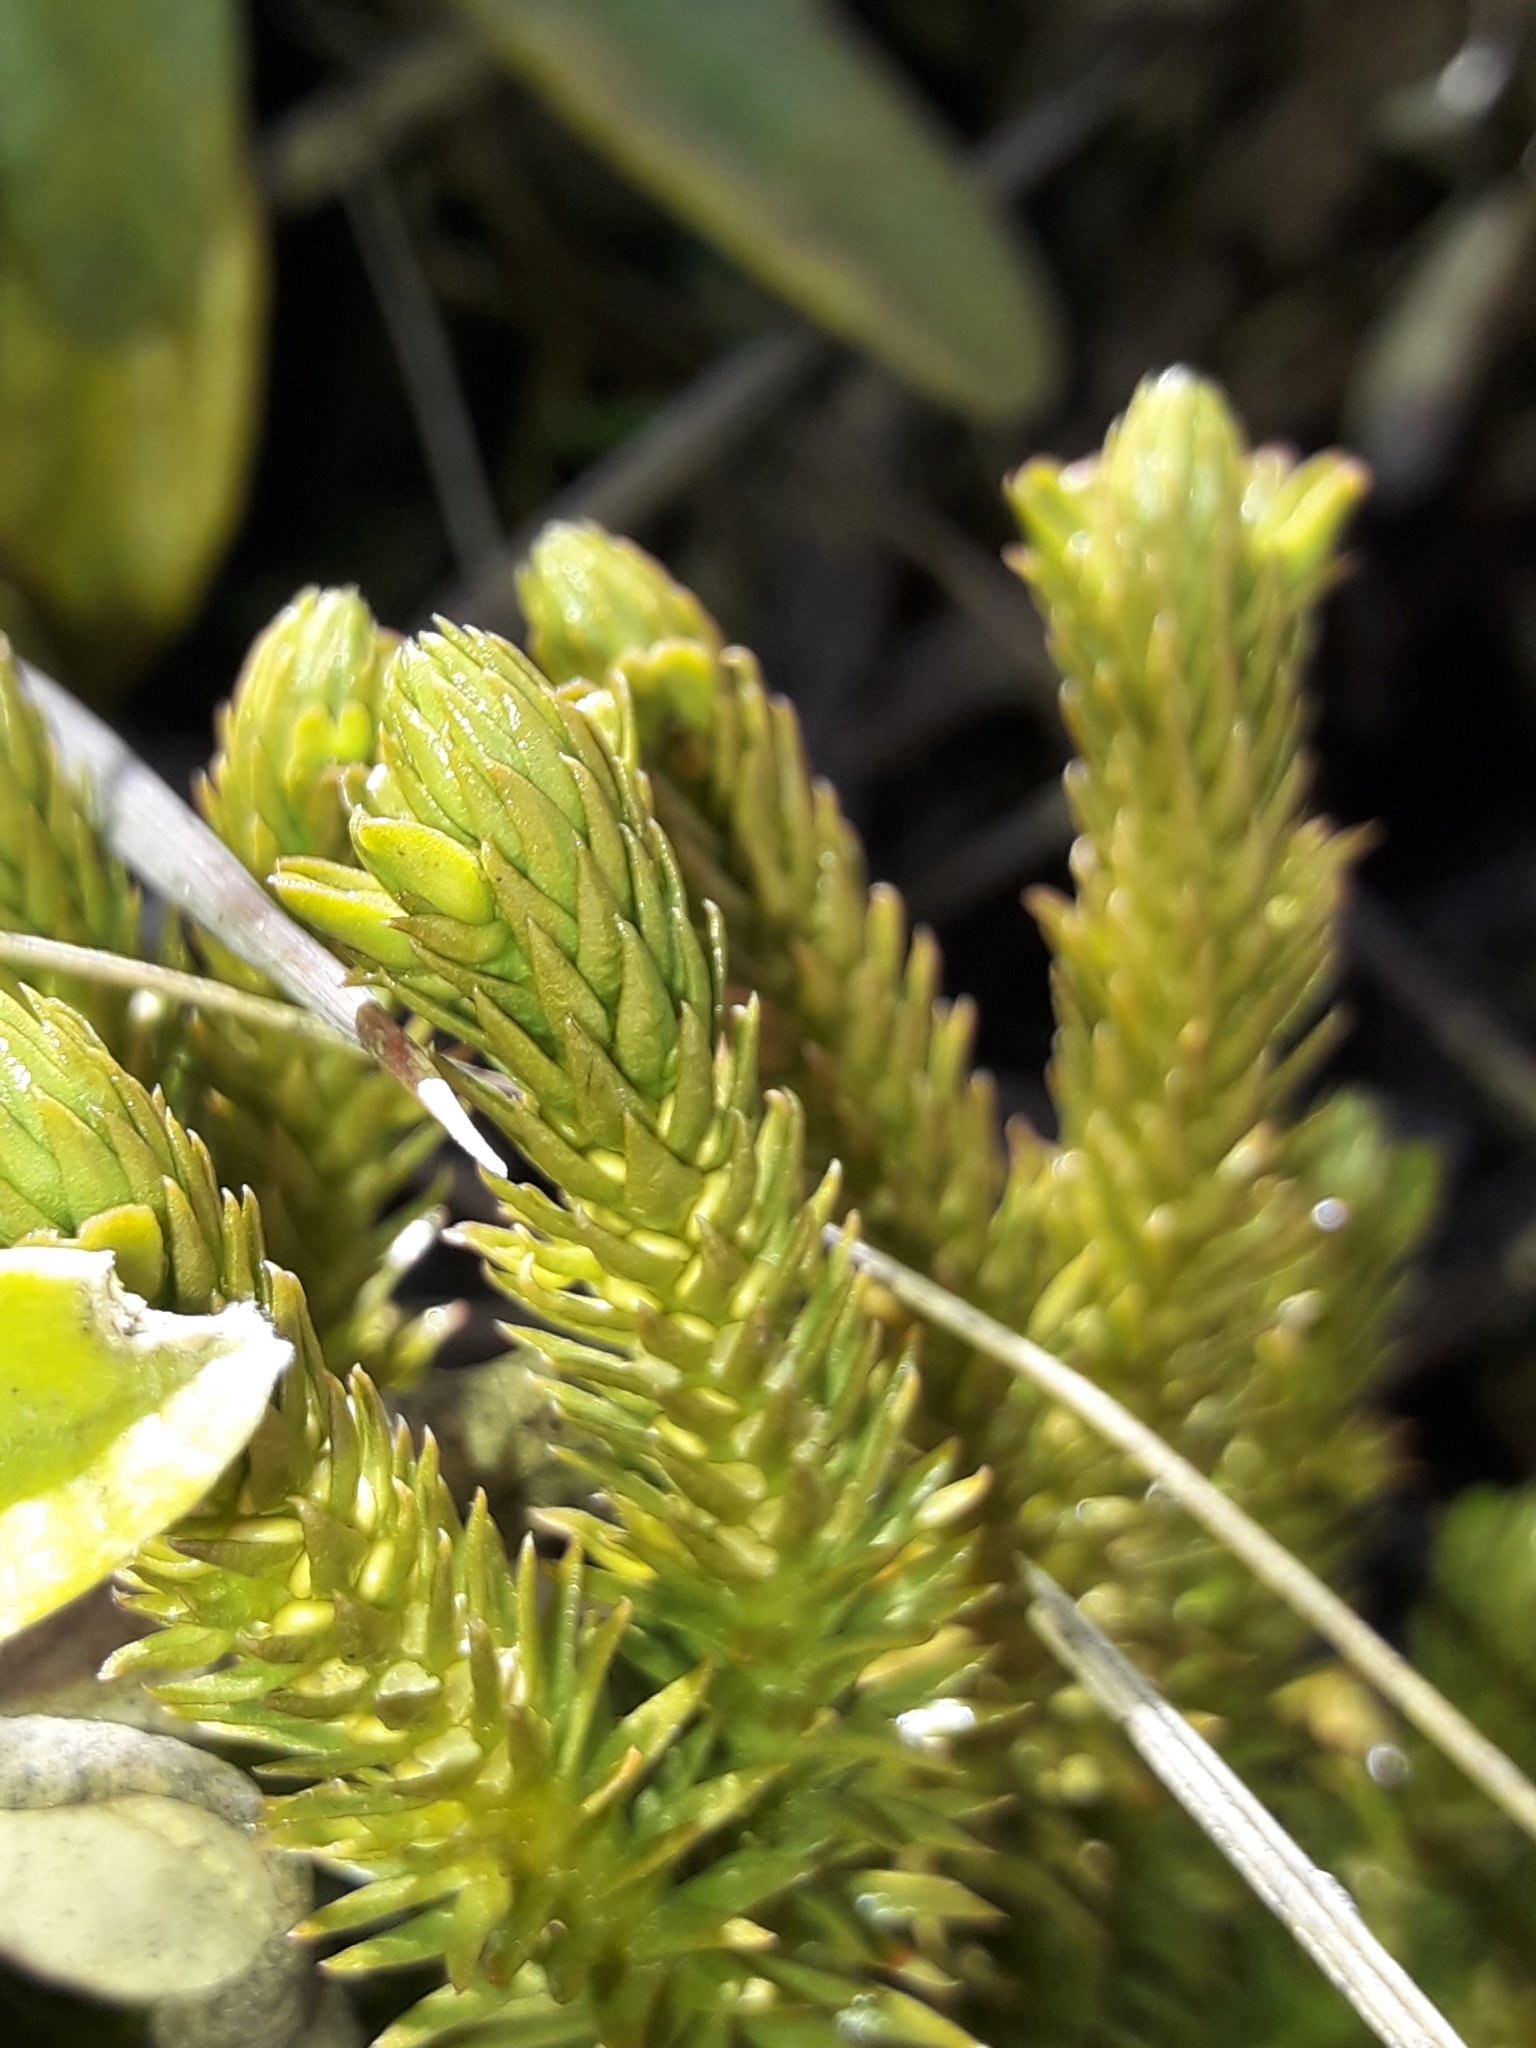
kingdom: Plantae
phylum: Tracheophyta
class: Lycopodiopsida
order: Lycopodiales
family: Lycopodiaceae
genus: Huperzia
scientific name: Huperzia australiana
